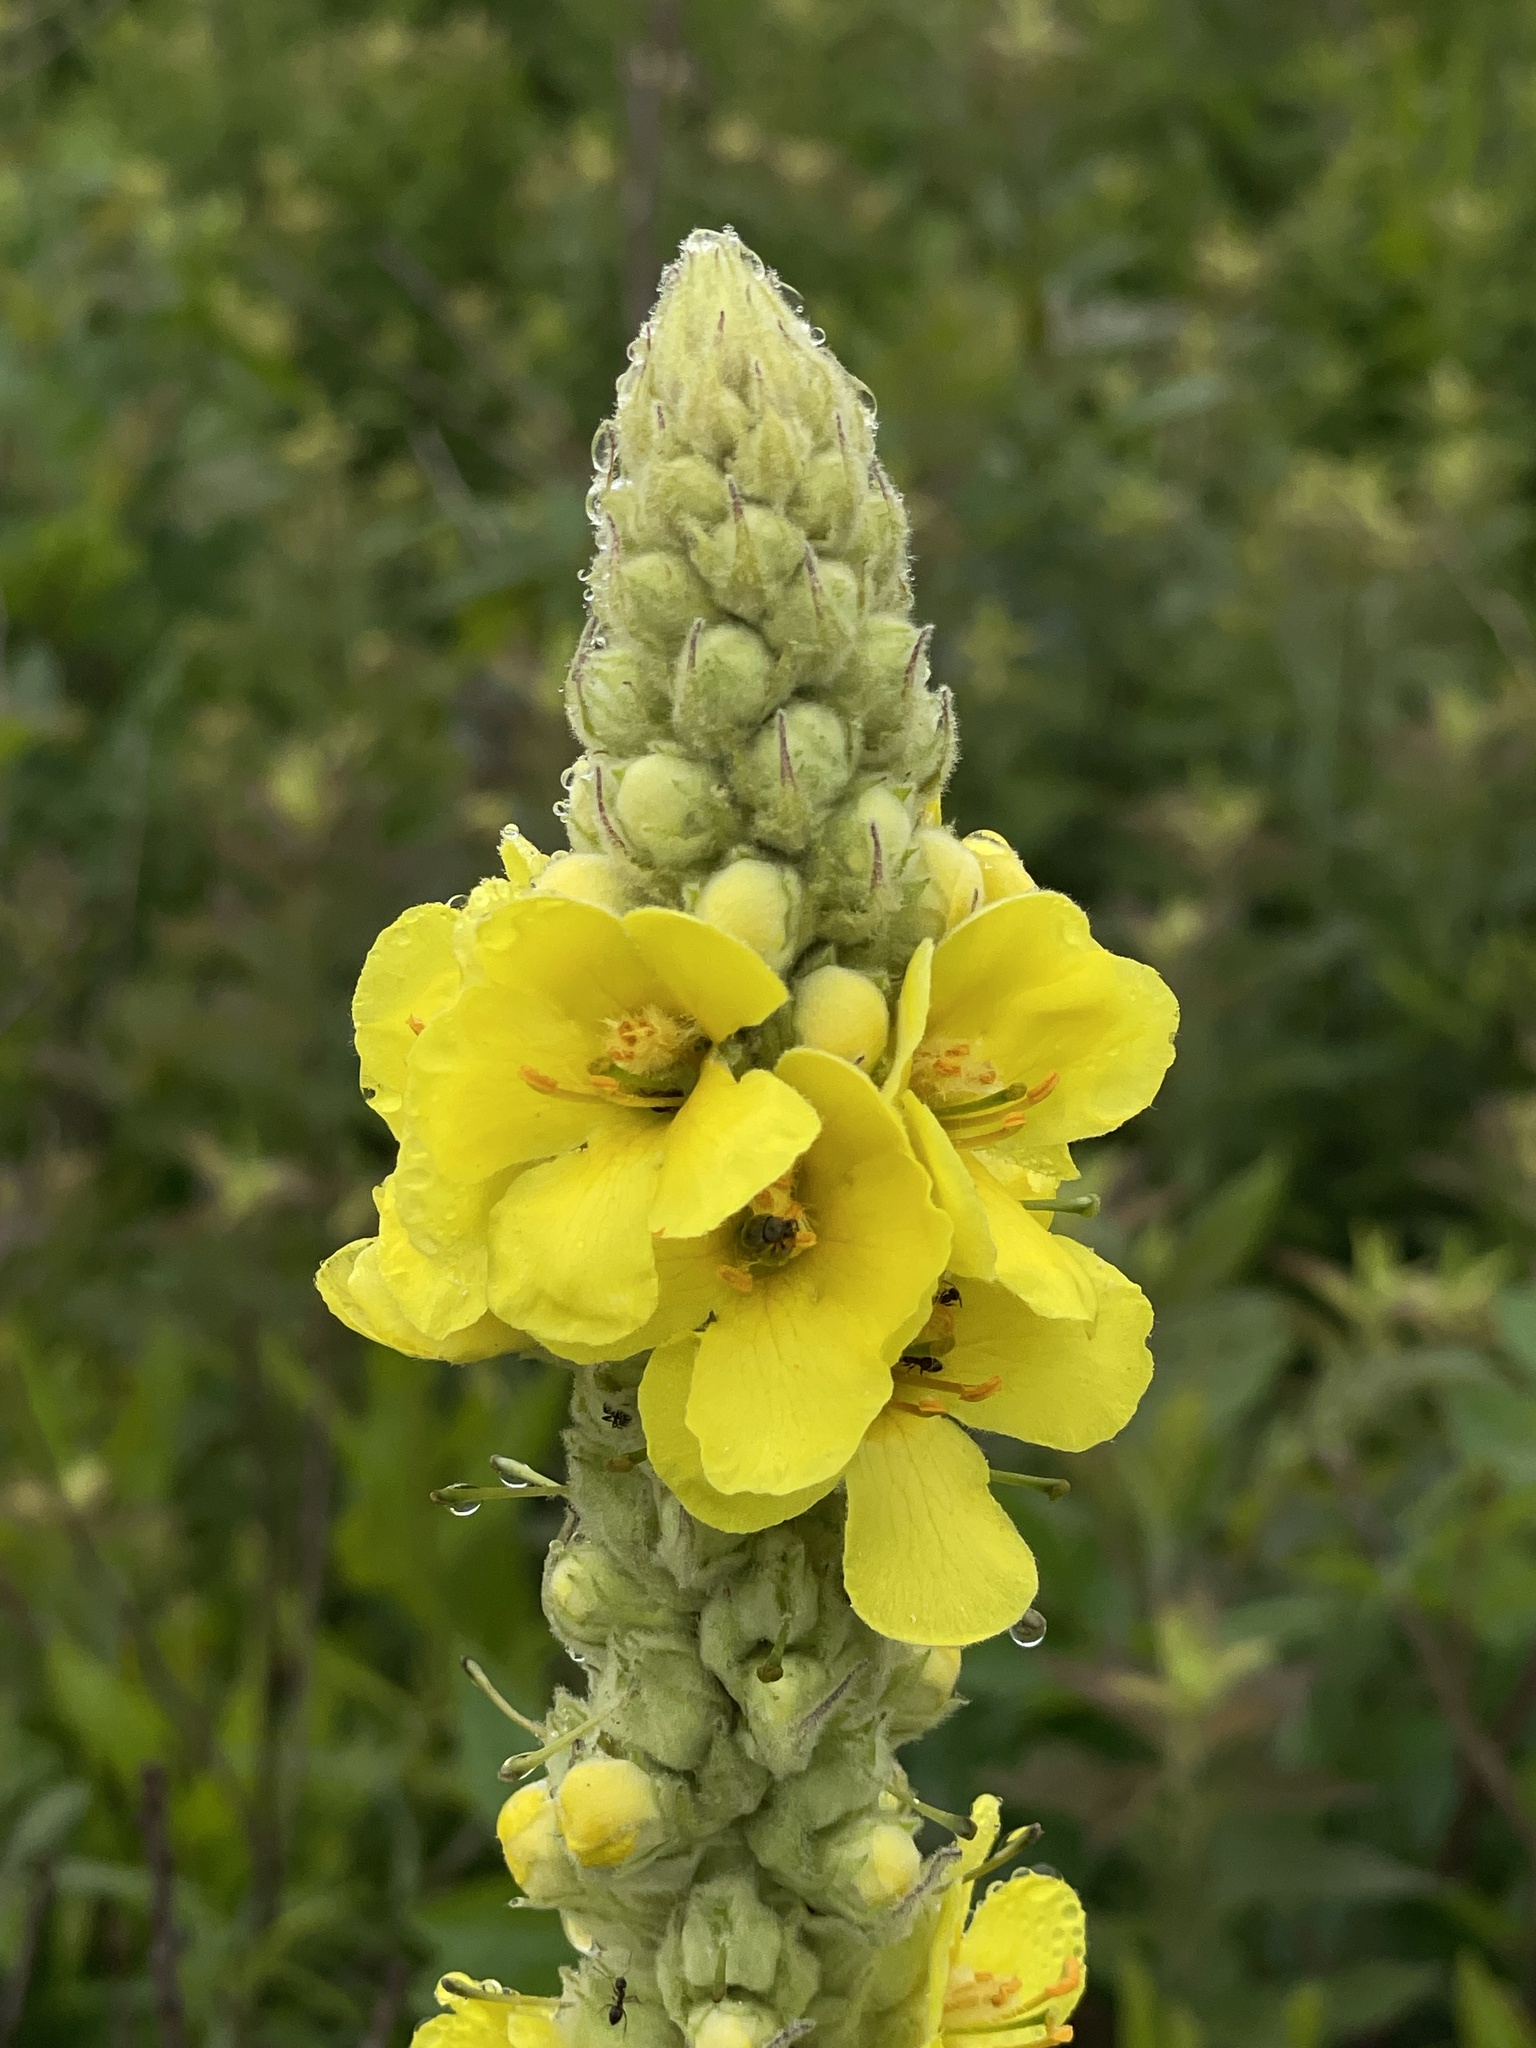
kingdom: Plantae
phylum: Tracheophyta
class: Magnoliopsida
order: Lamiales
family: Scrophulariaceae
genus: Verbascum
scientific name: Verbascum thapsus
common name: Common mullein
